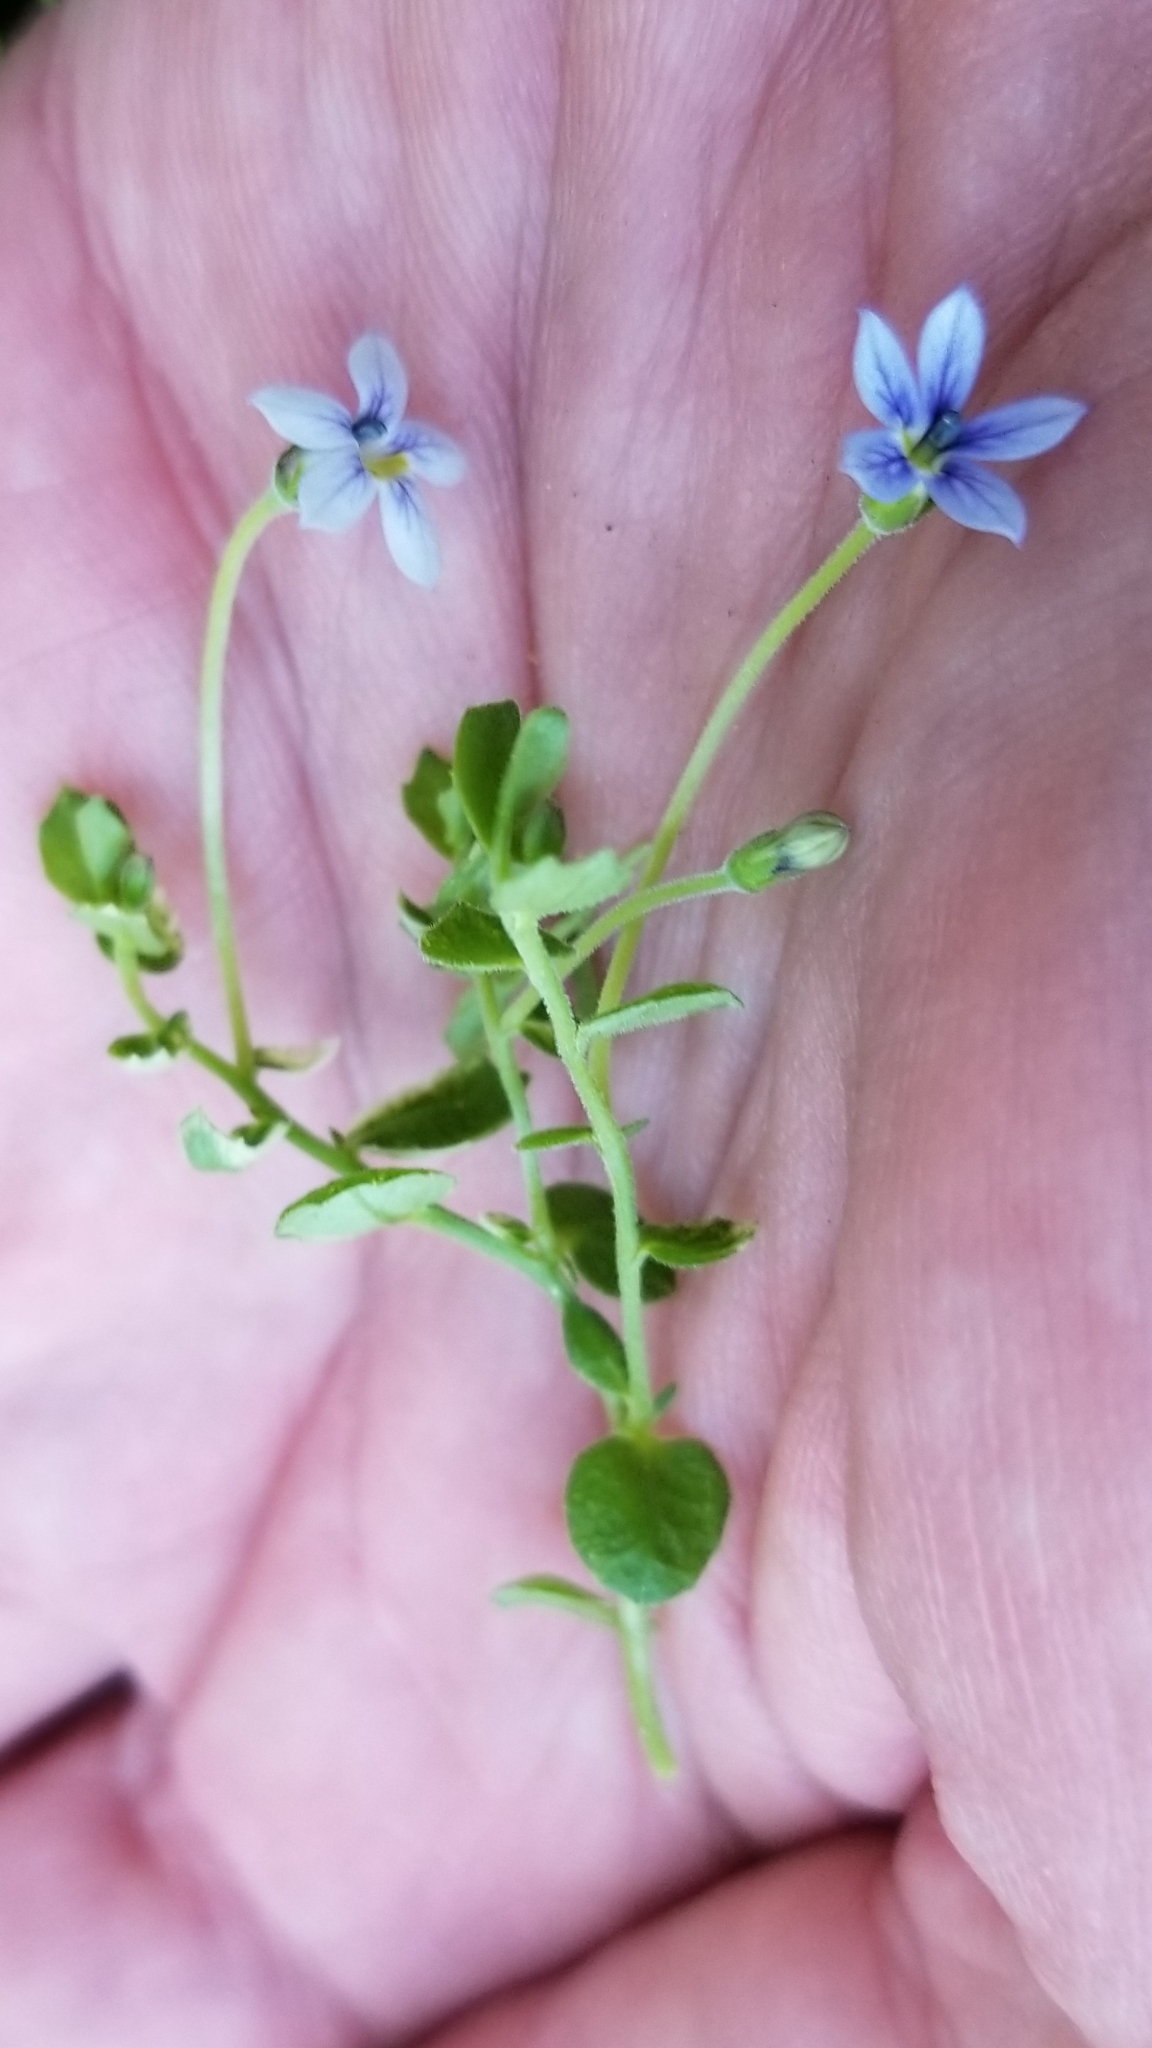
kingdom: Plantae
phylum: Tracheophyta
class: Magnoliopsida
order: Asterales
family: Campanulaceae
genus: Lobelia
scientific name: Lobelia pedunculata
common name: Matted pratia
